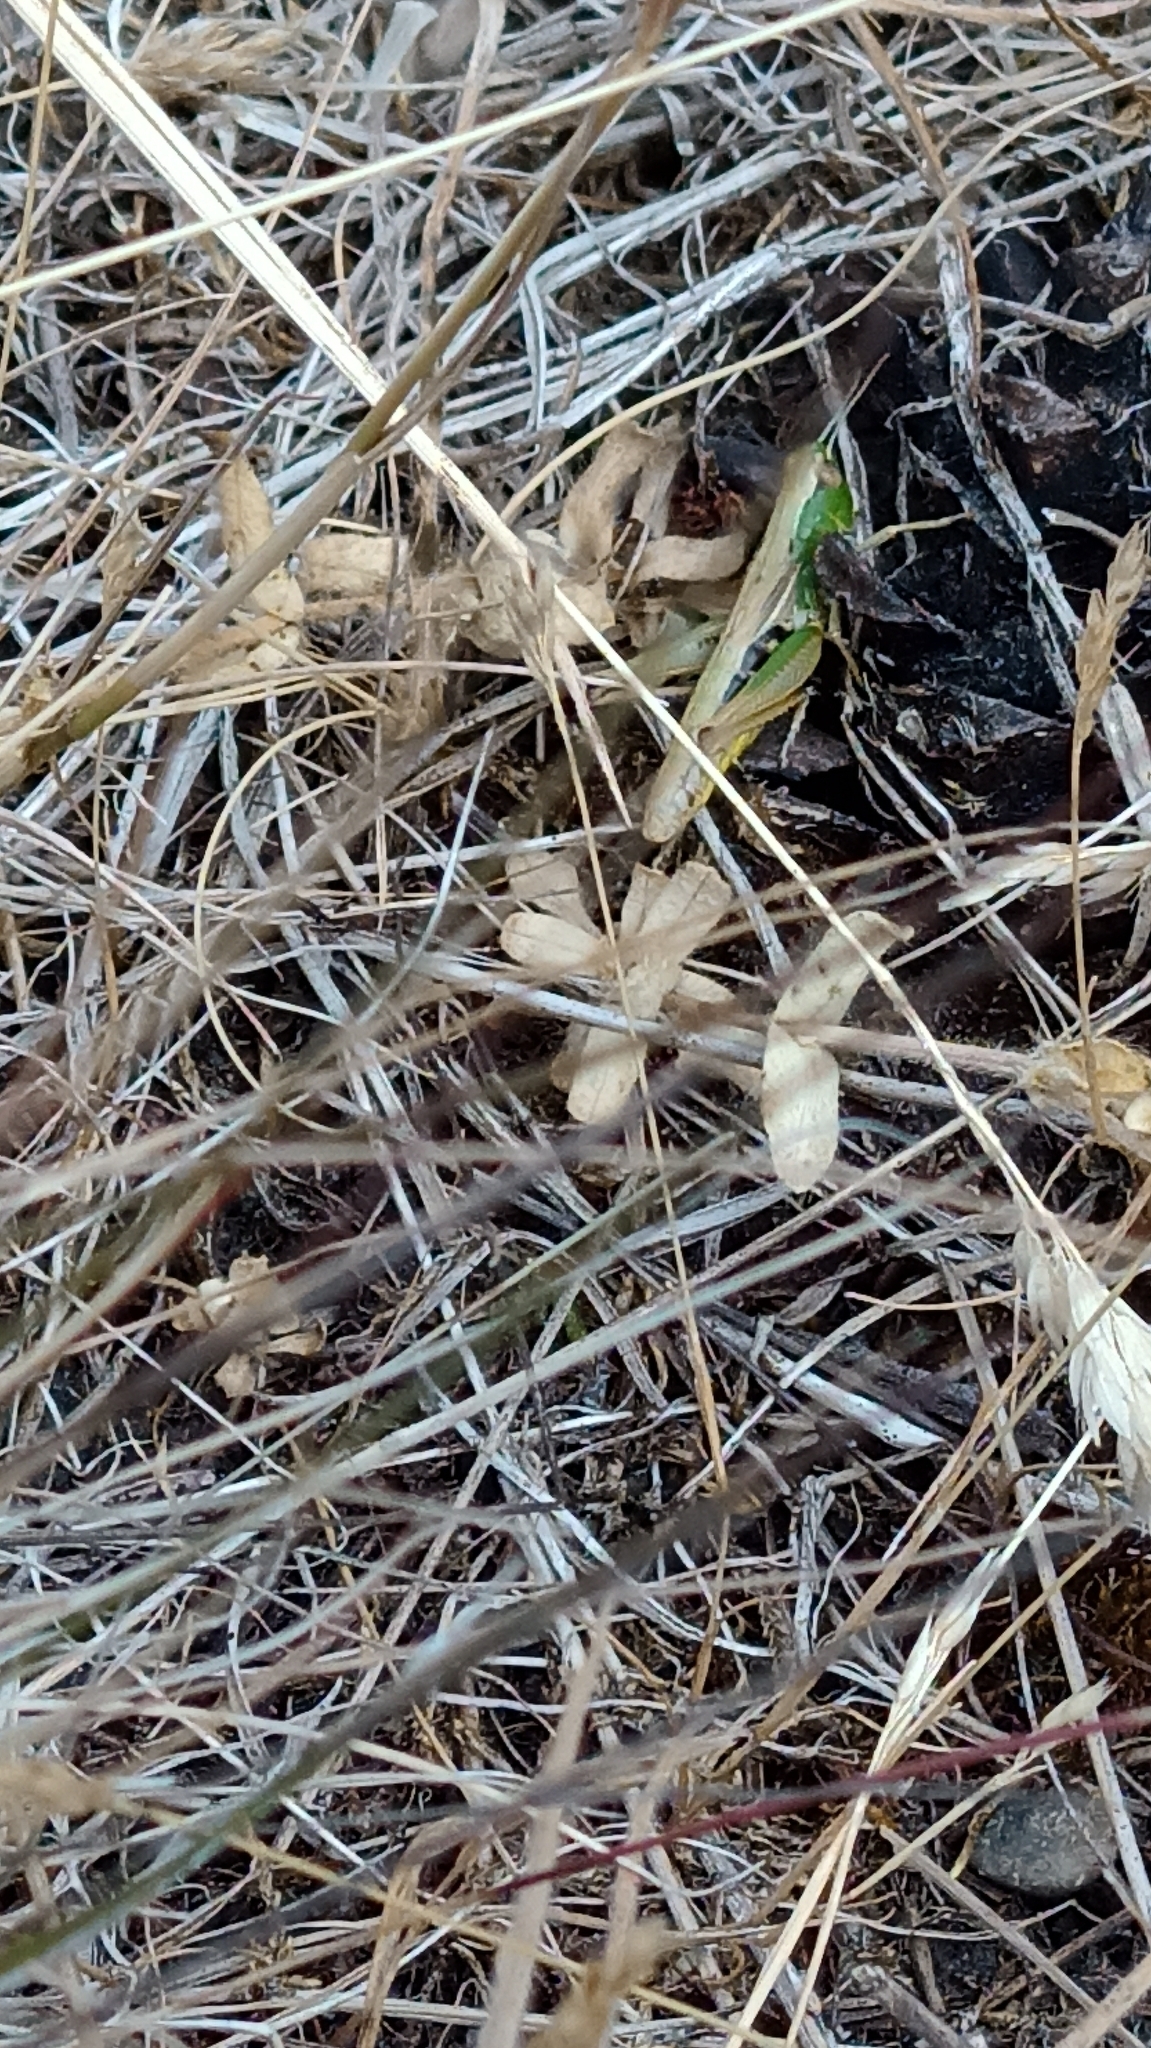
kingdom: Animalia
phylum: Arthropoda
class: Insecta
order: Orthoptera
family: Acrididae
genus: Pseudochorthippus
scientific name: Pseudochorthippus parallelus
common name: Meadow grasshopper
